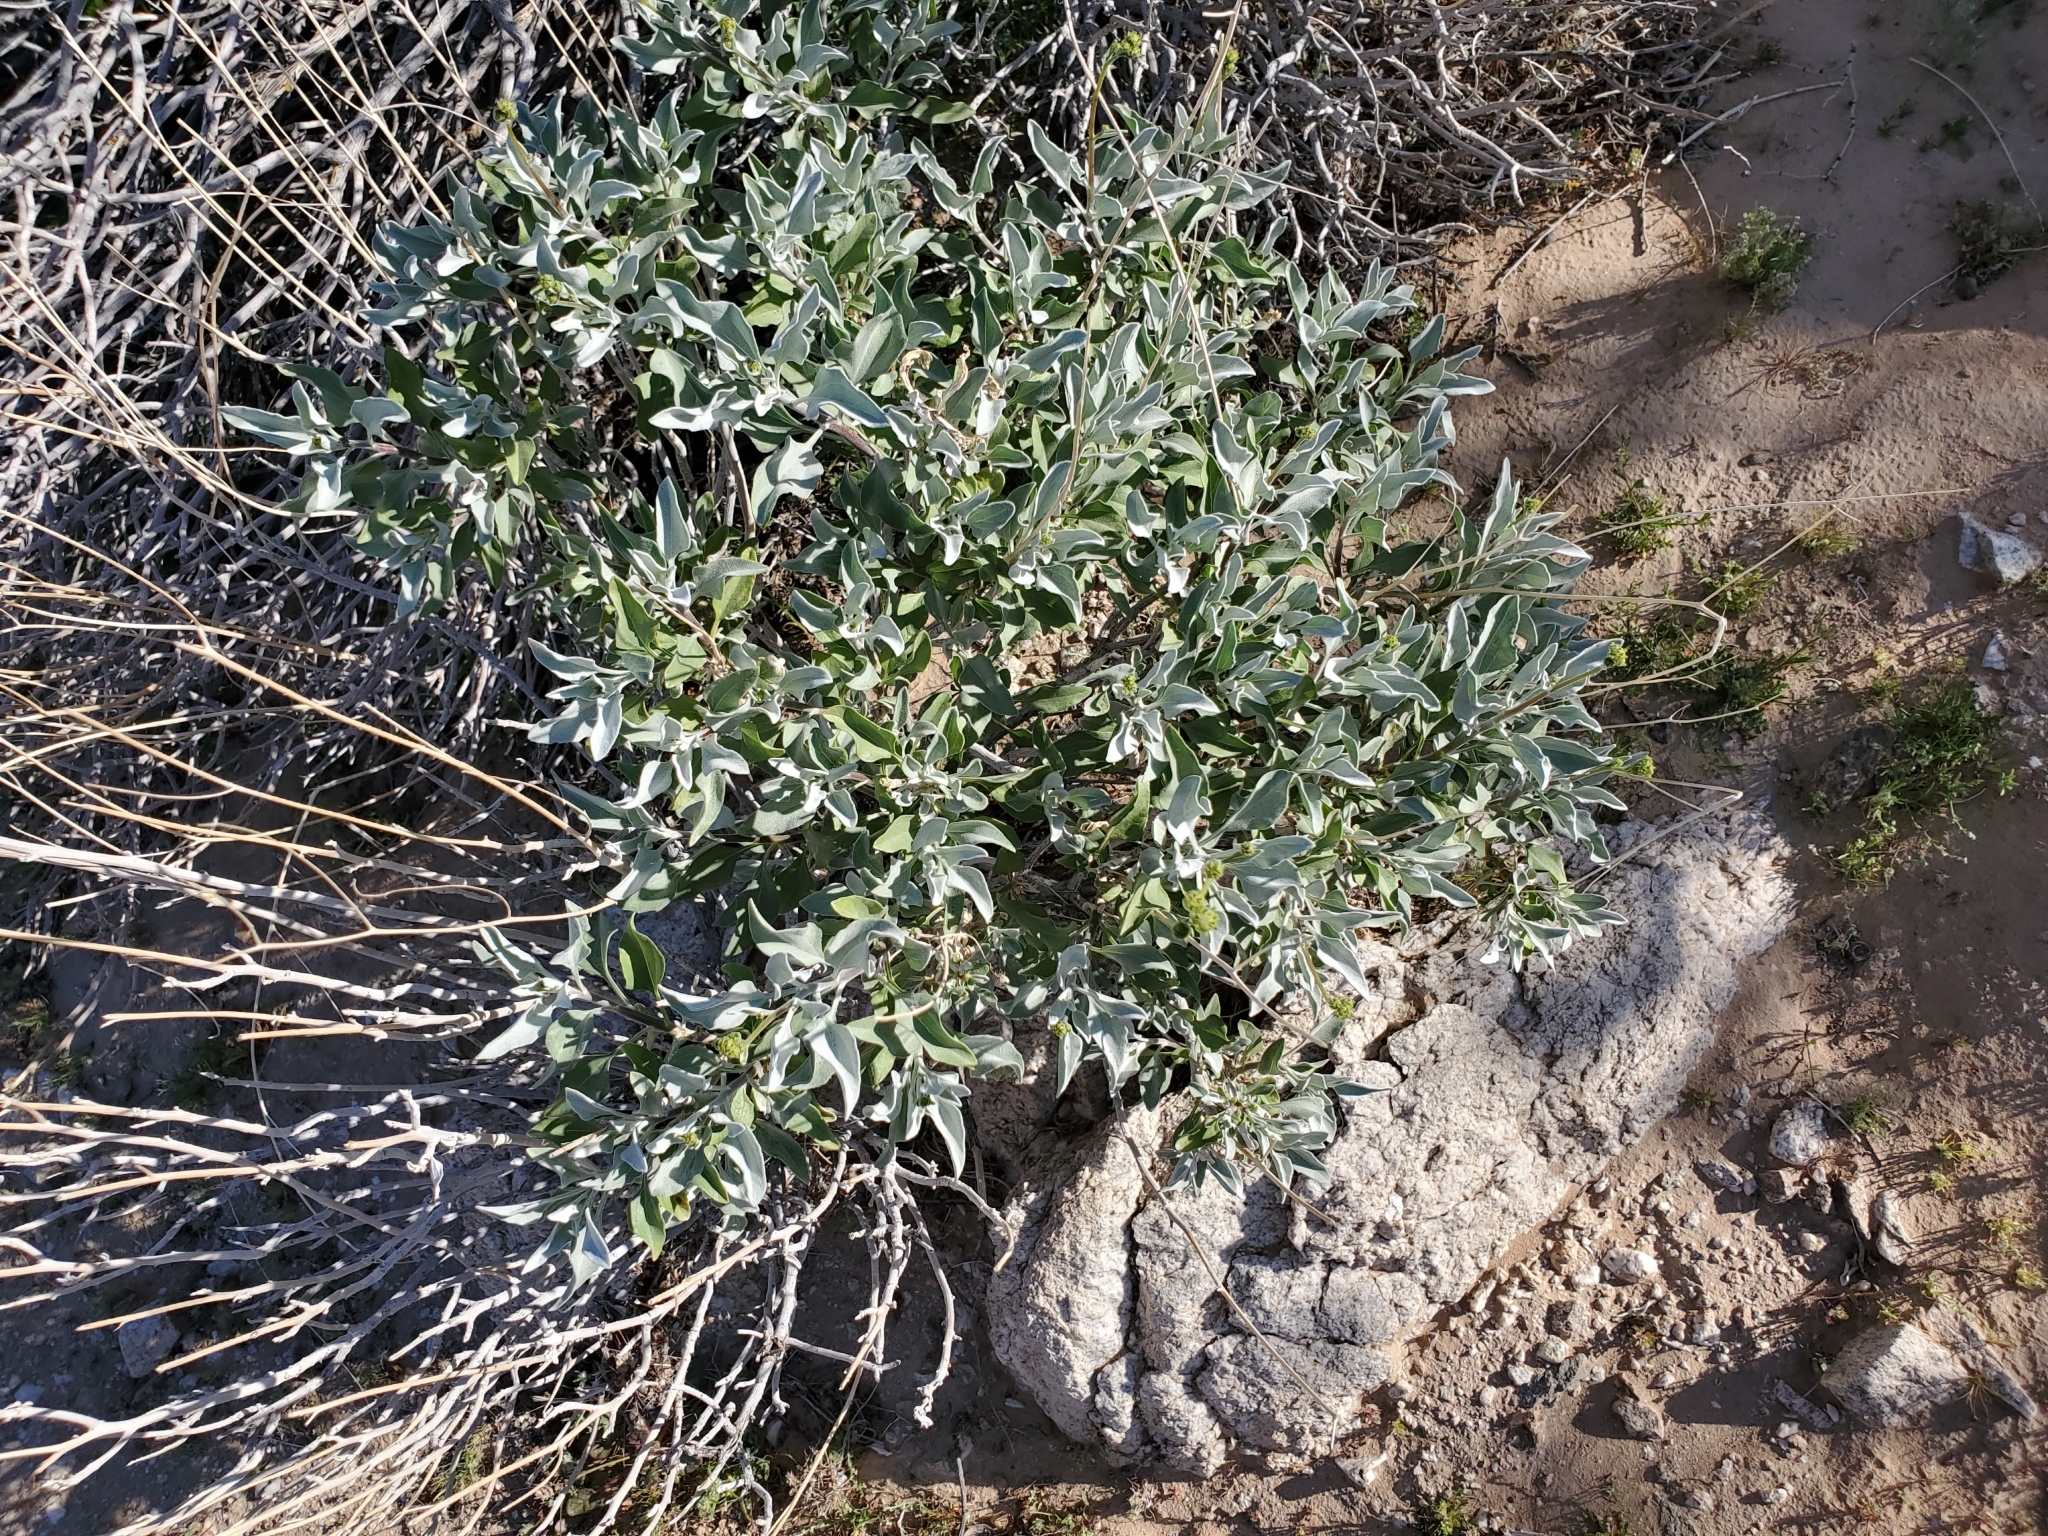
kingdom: Plantae
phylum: Tracheophyta
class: Magnoliopsida
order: Asterales
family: Asteraceae
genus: Encelia
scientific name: Encelia farinosa
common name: Brittlebush
